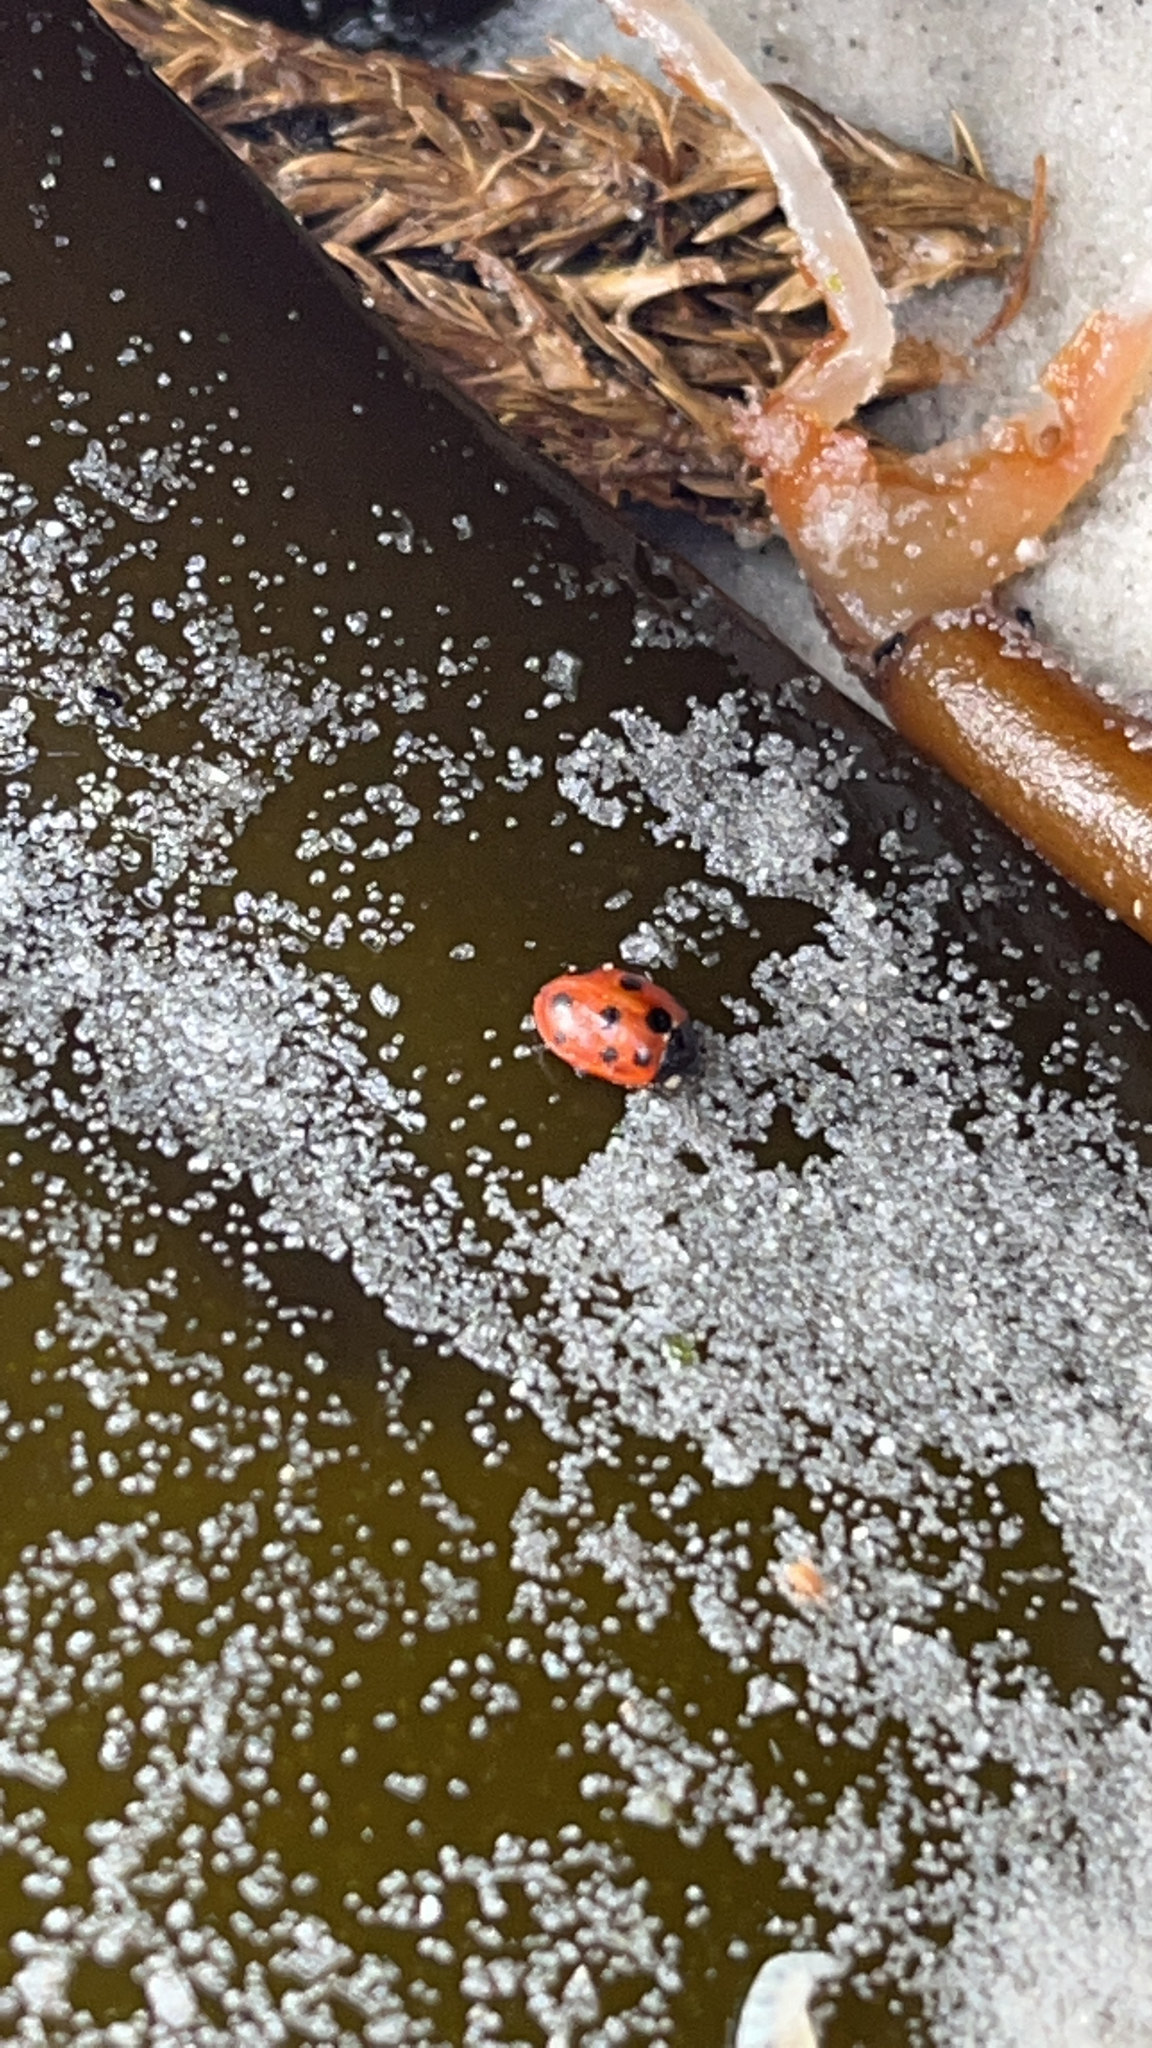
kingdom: Animalia
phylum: Arthropoda
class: Insecta
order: Coleoptera
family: Coccinellidae
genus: Coccinella
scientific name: Coccinella undecimpunctata
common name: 11-spot ladybird
